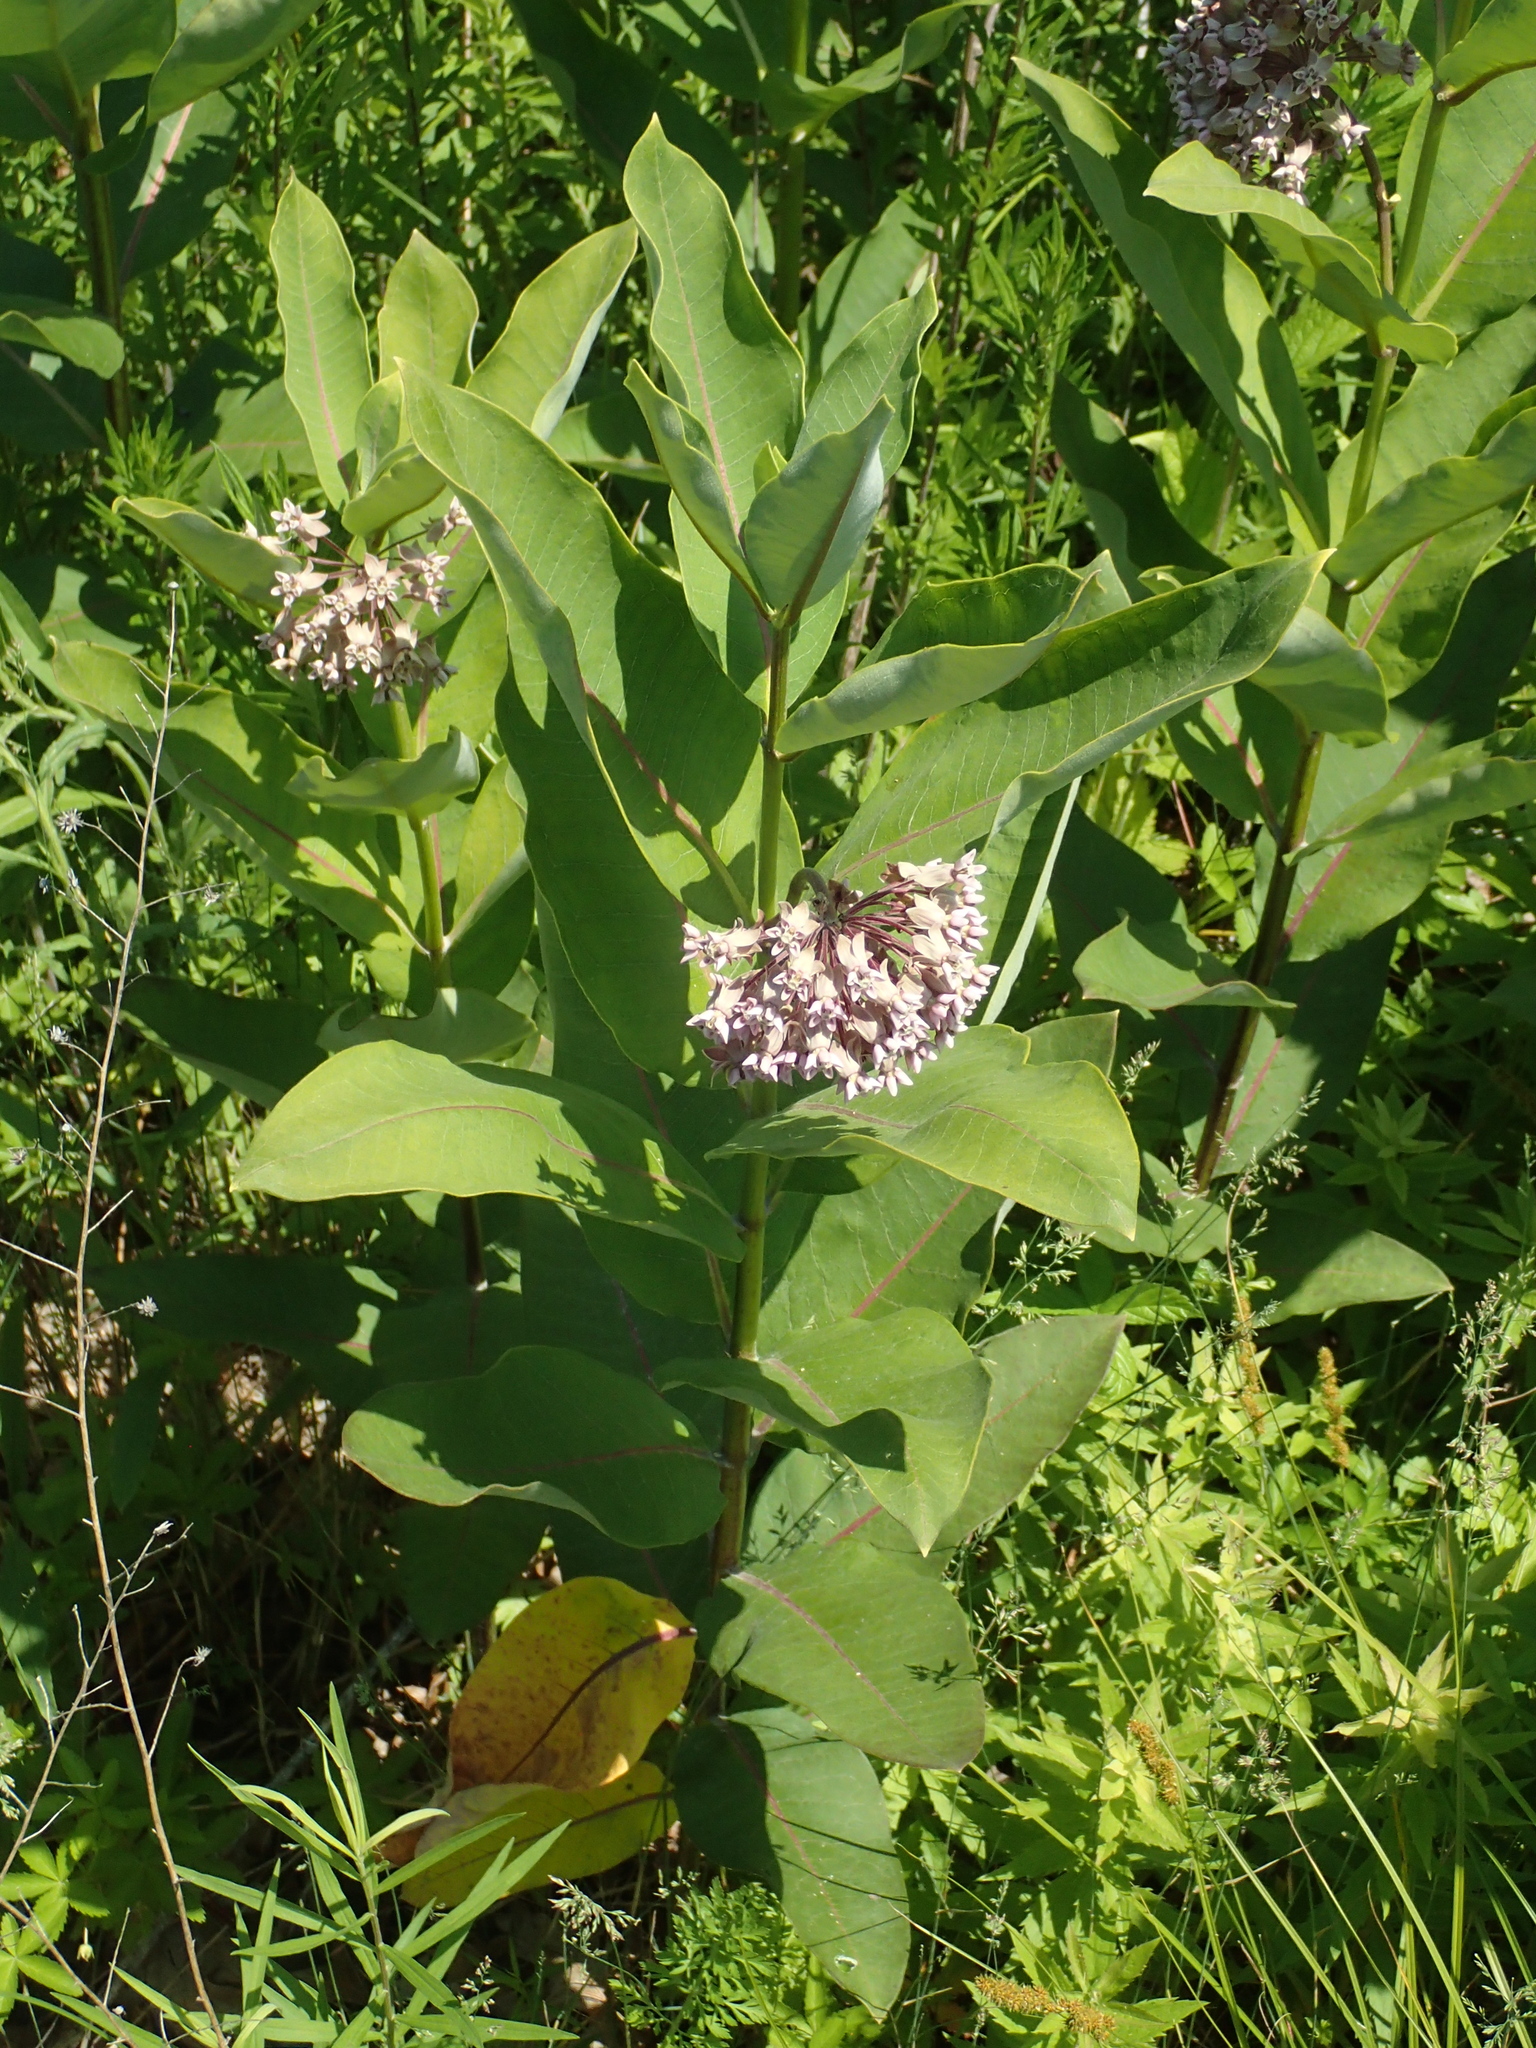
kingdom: Plantae
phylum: Tracheophyta
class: Magnoliopsida
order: Gentianales
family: Apocynaceae
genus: Asclepias
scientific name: Asclepias syriaca
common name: Common milkweed
